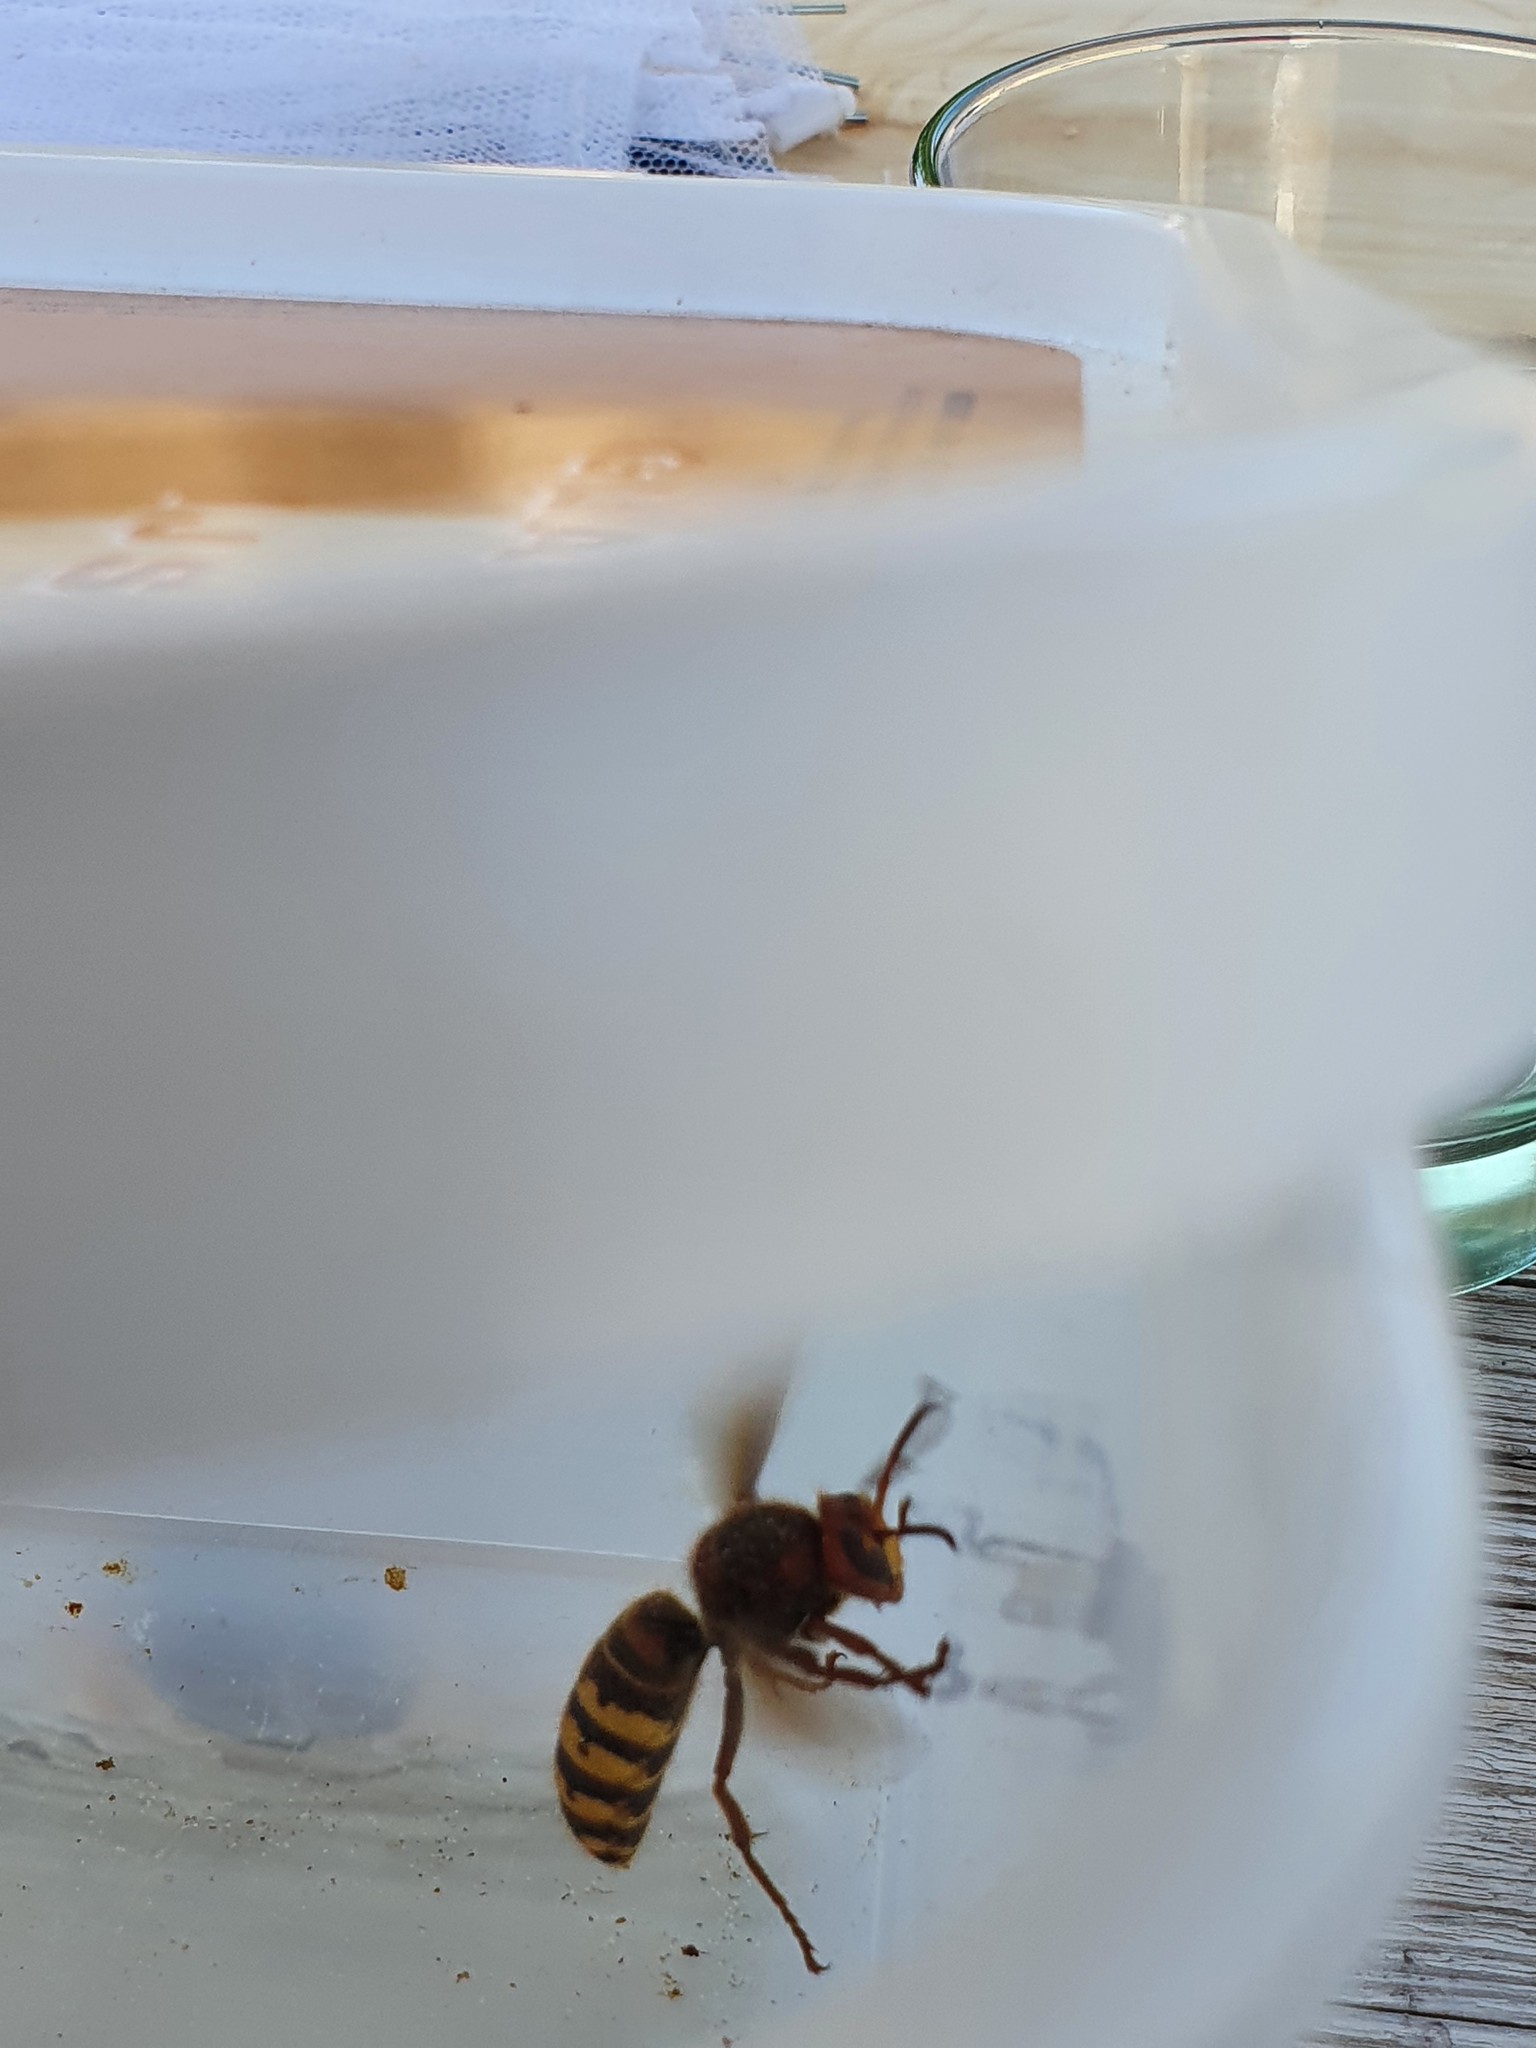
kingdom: Animalia
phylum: Arthropoda
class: Insecta
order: Hymenoptera
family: Vespidae
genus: Vespa
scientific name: Vespa crabro
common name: Hornet
